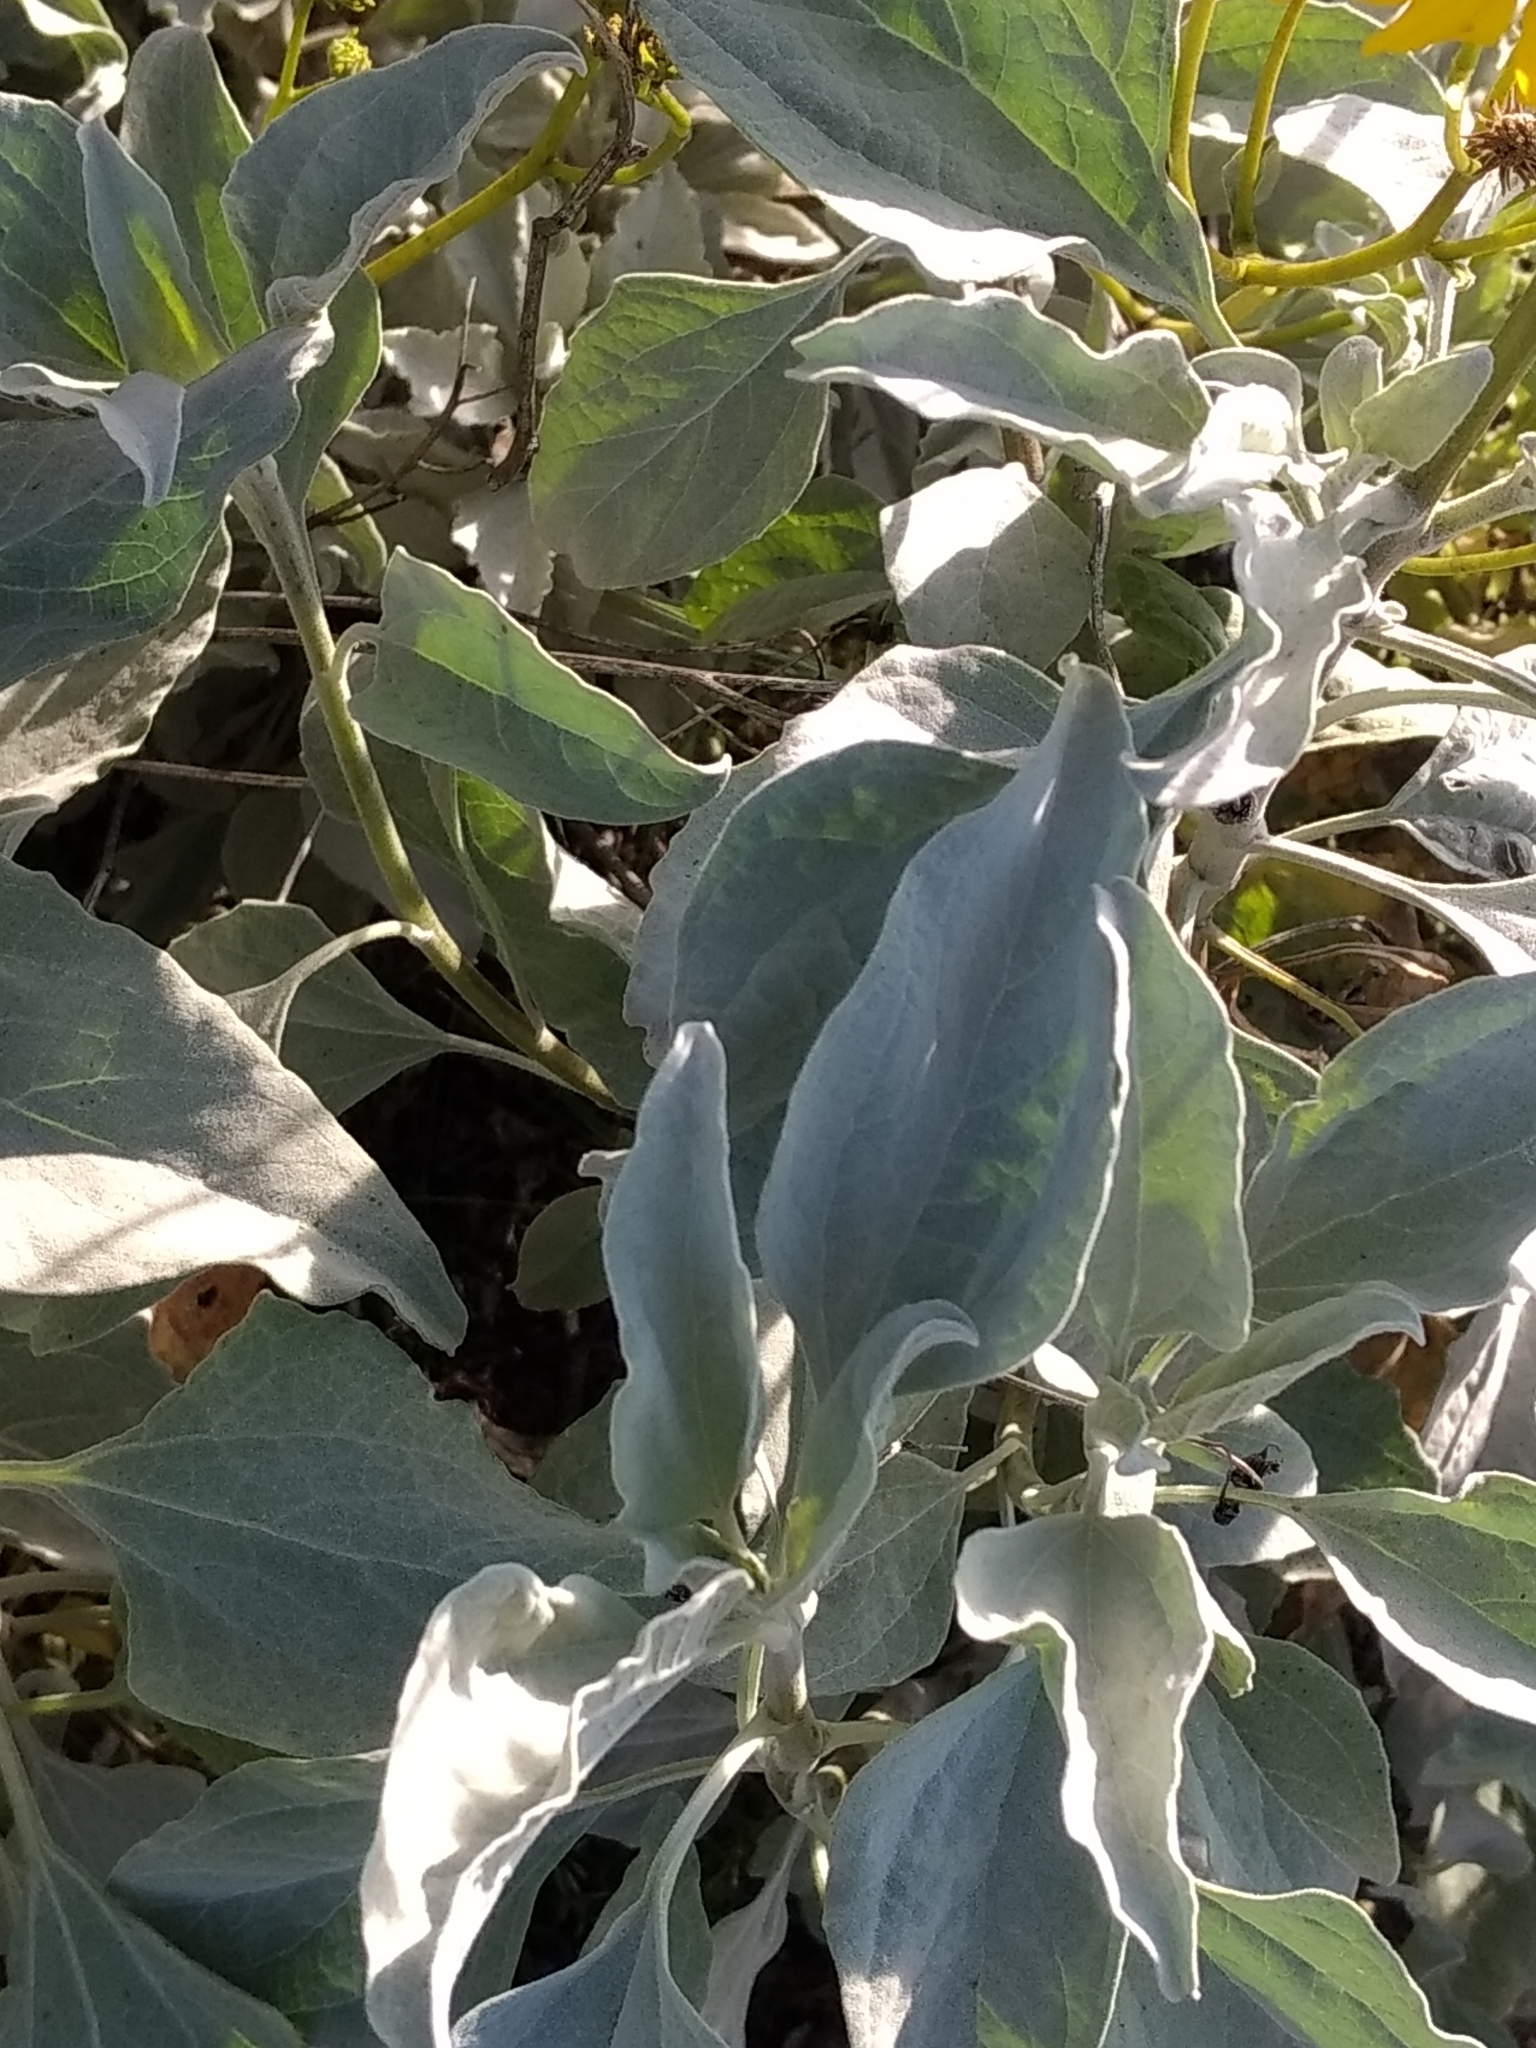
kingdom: Plantae
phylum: Tracheophyta
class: Magnoliopsida
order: Asterales
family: Asteraceae
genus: Encelia
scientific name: Encelia farinosa
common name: Brittlebush
